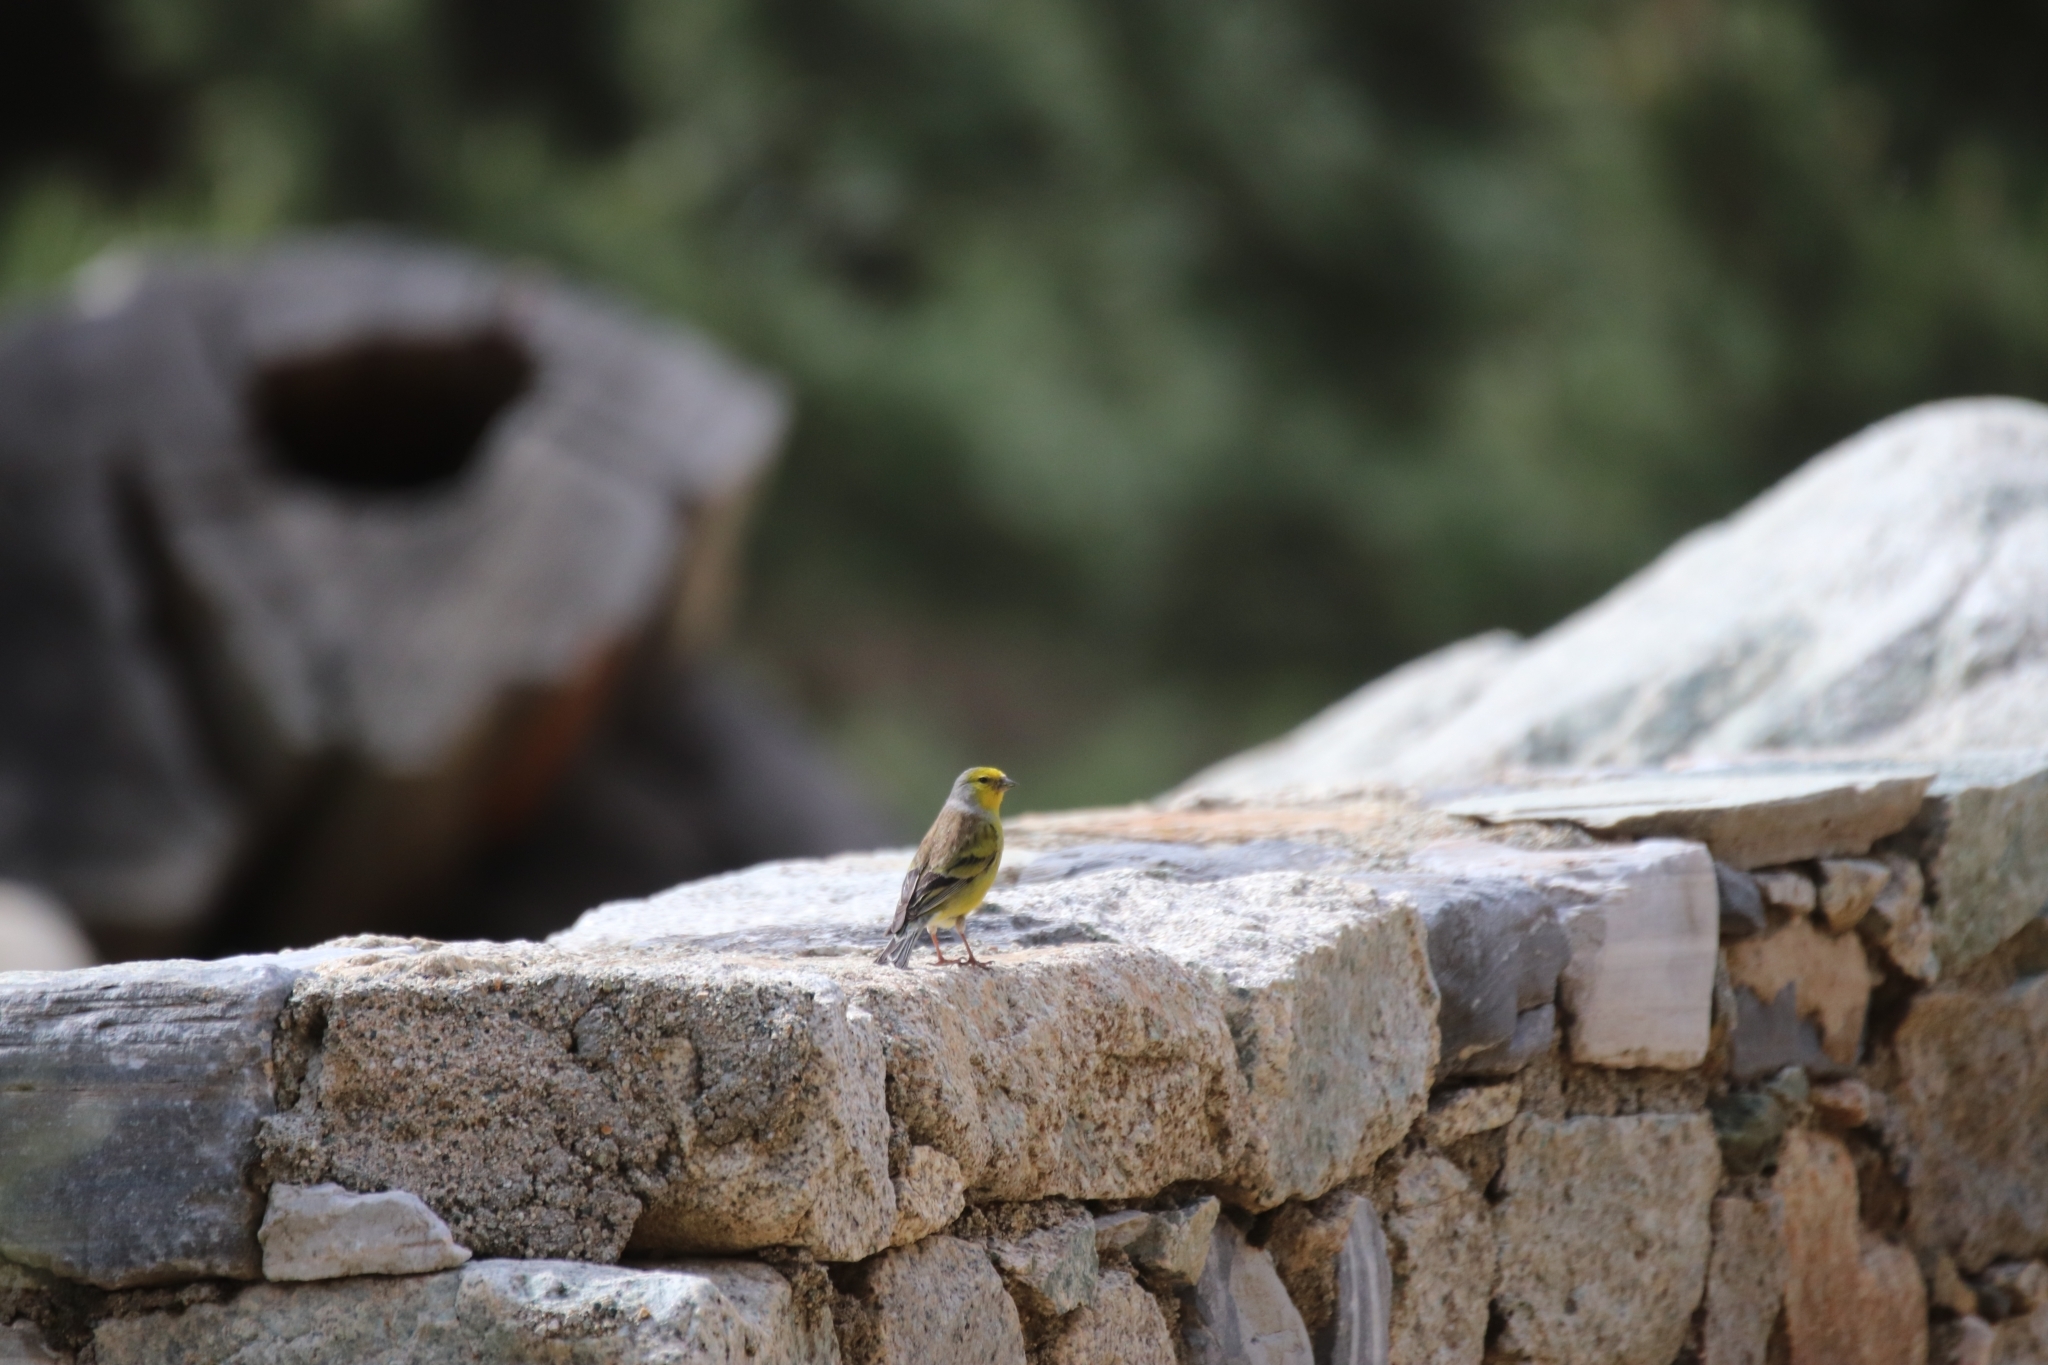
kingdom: Animalia
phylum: Chordata
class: Aves
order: Passeriformes
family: Fringillidae
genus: Carduelis
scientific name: Carduelis corsicana
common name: Corsican finch
